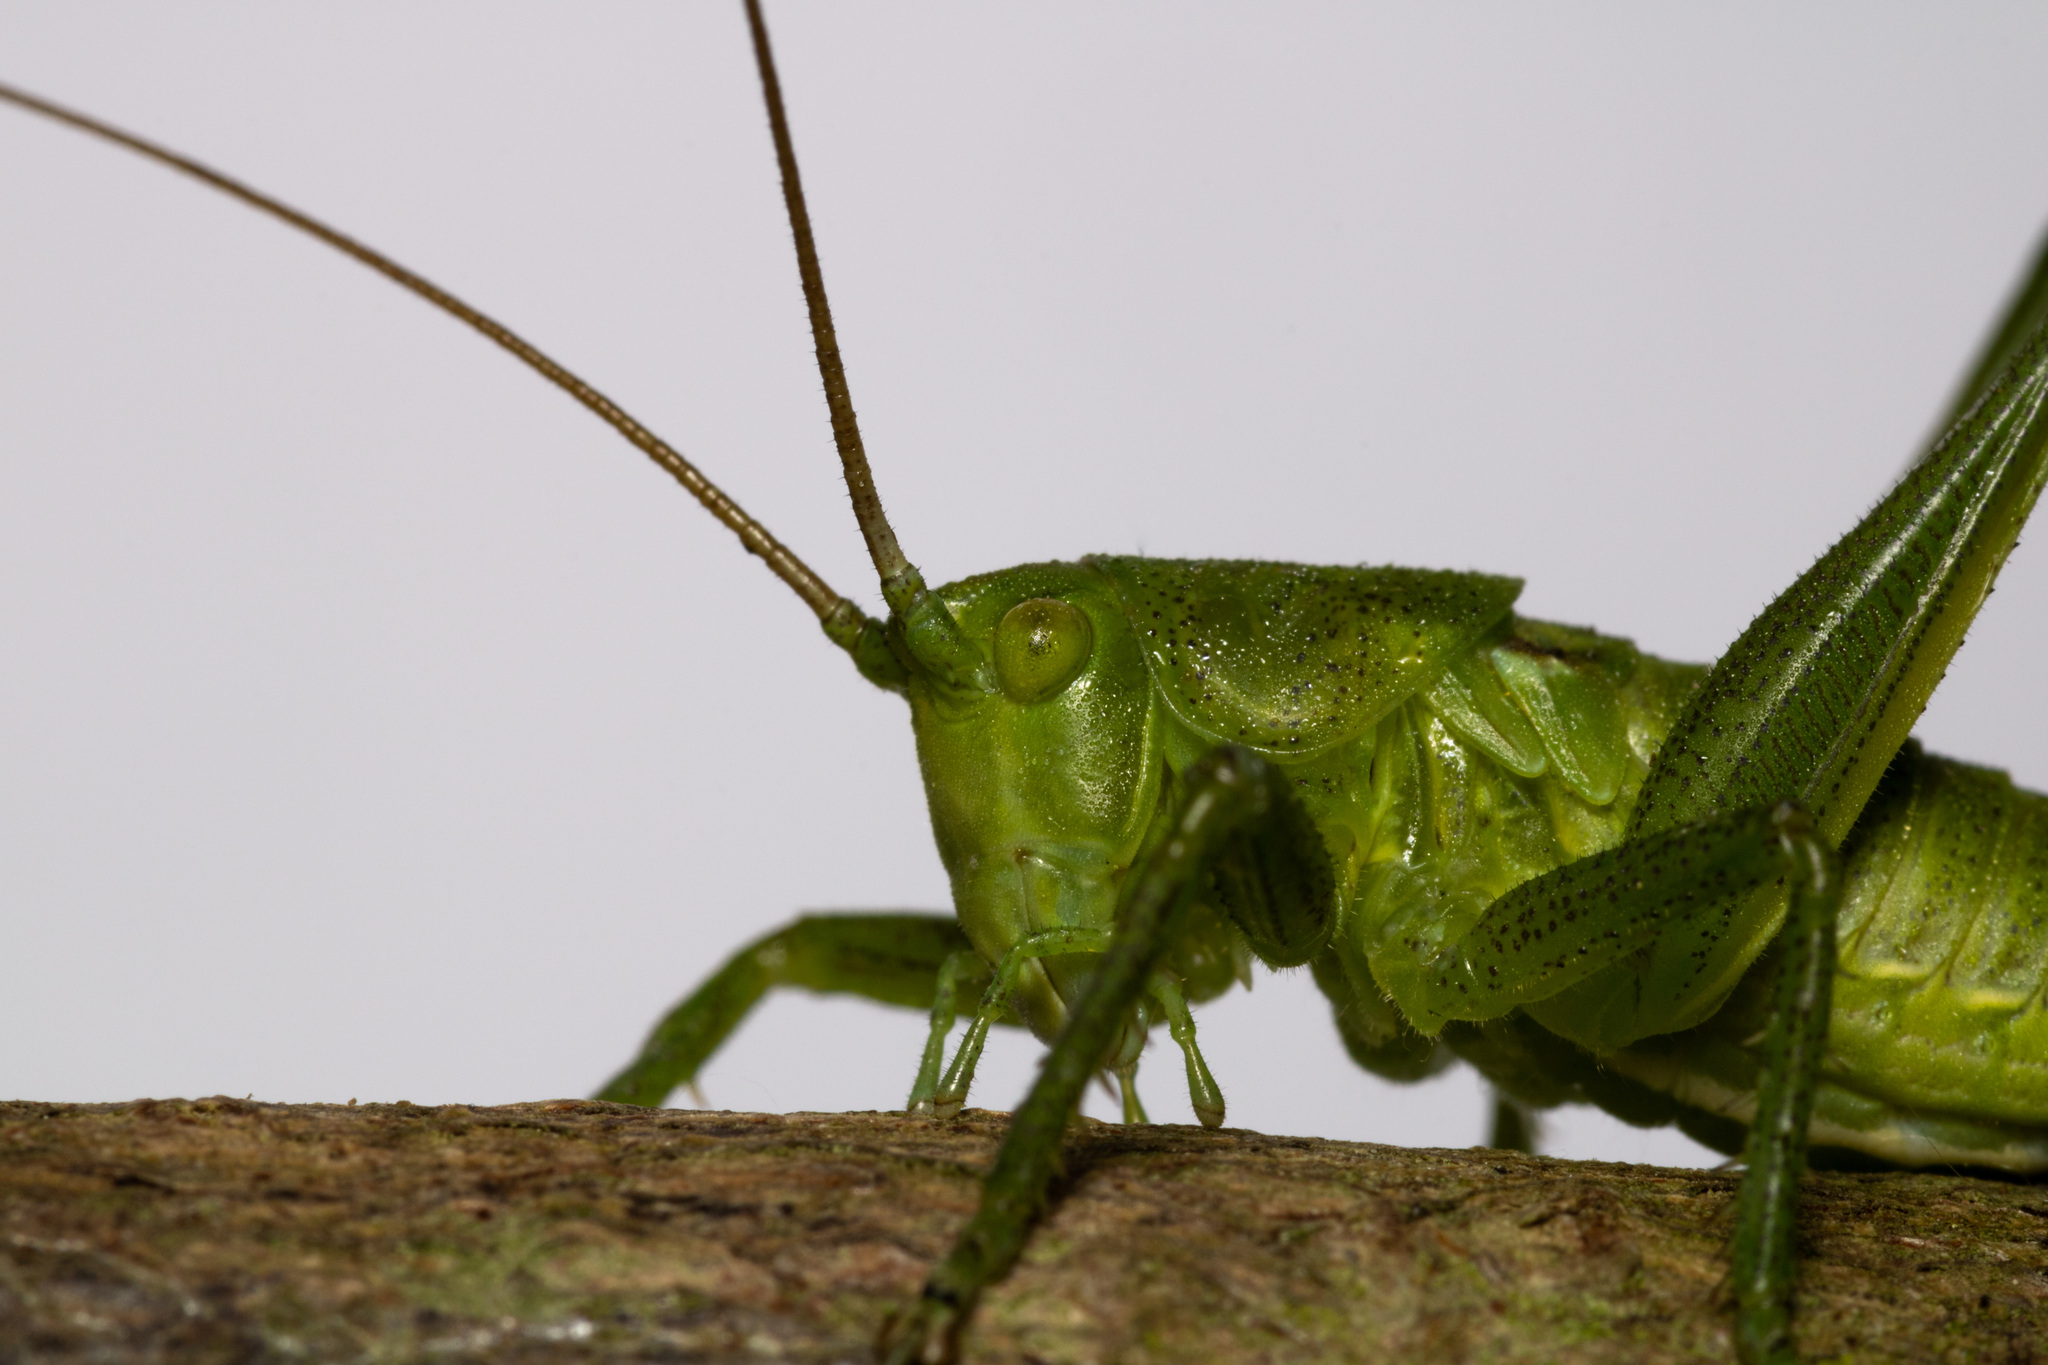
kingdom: Animalia
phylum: Arthropoda
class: Insecta
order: Orthoptera
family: Tettigoniidae
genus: Tettigonia
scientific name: Tettigonia viridissima
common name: Great green bush-cricket
